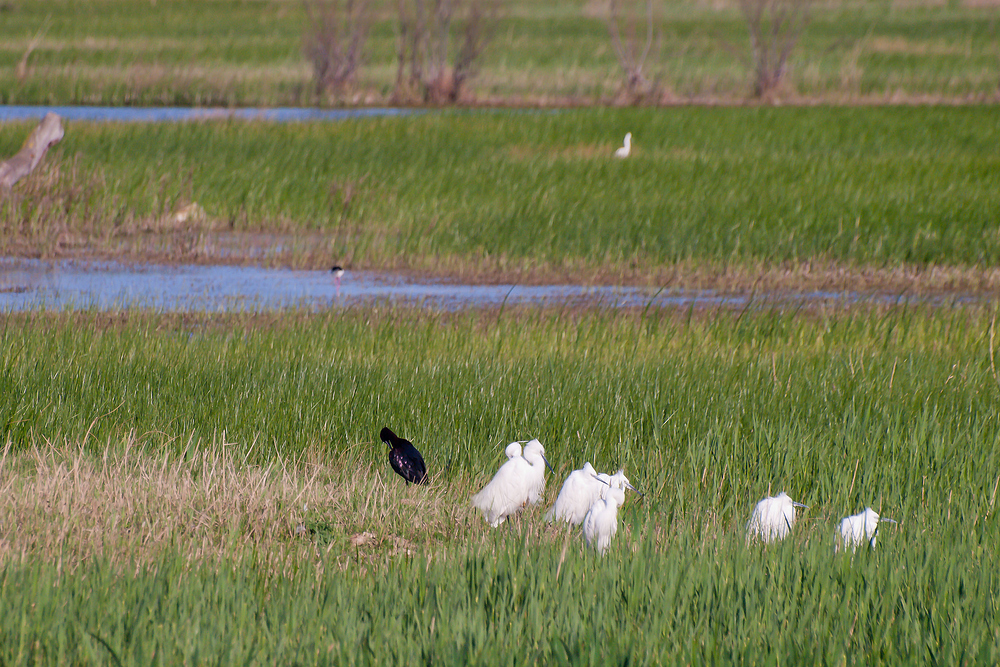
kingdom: Animalia
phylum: Chordata
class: Aves
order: Pelecaniformes
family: Threskiornithidae
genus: Plegadis
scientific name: Plegadis falcinellus
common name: Glossy ibis
